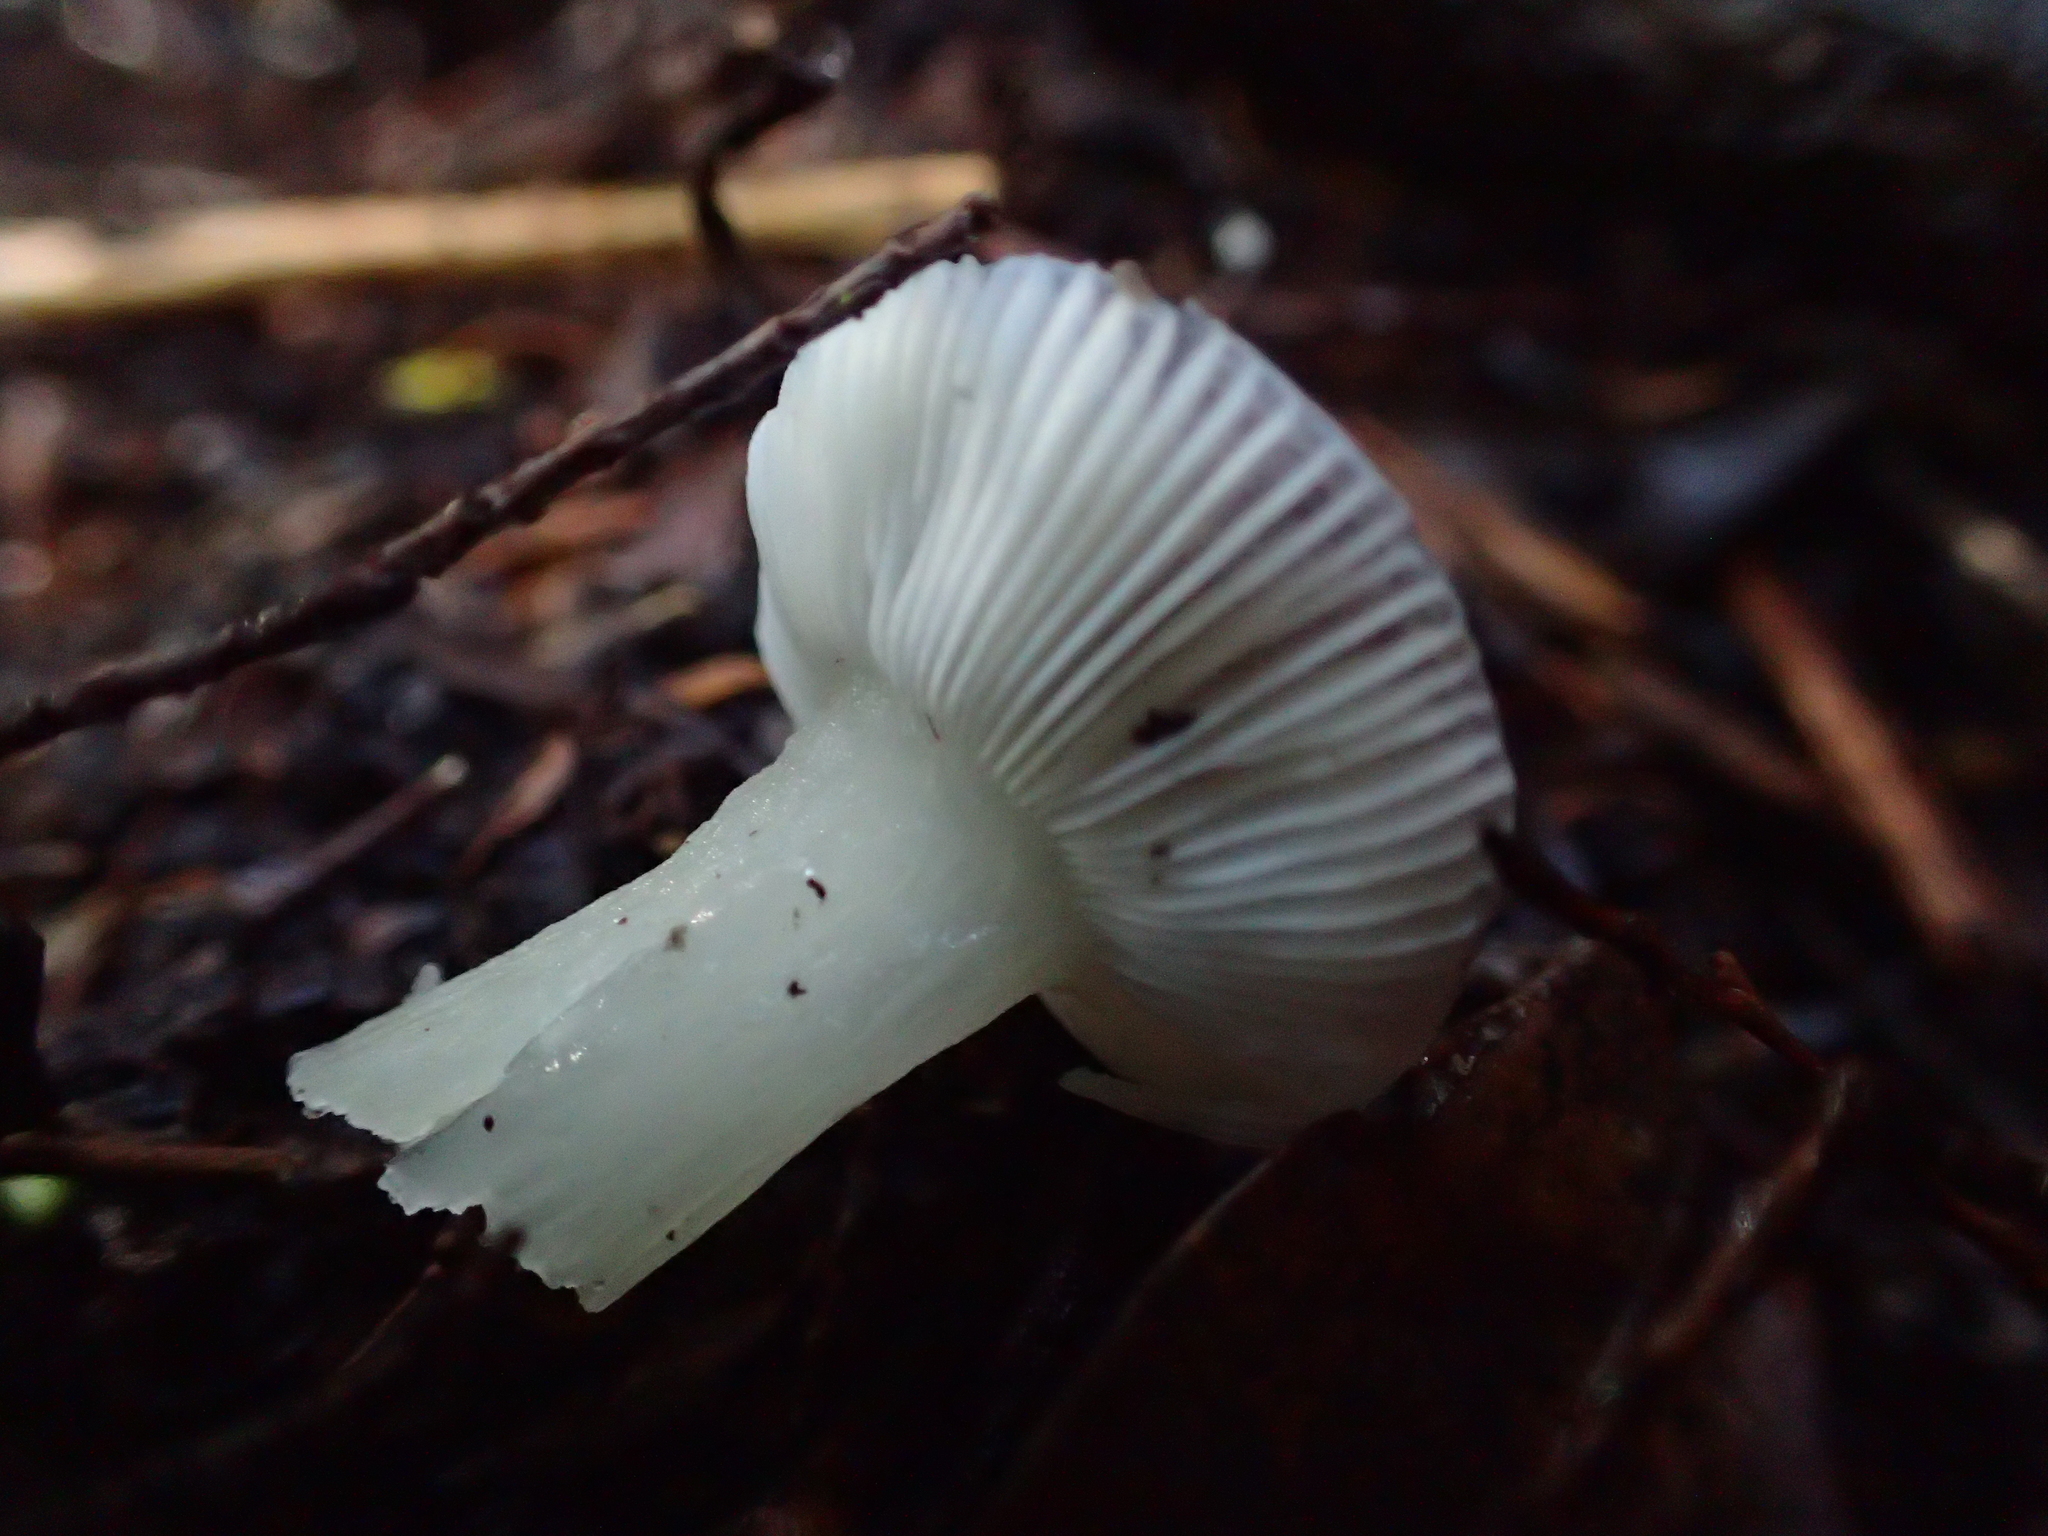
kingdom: Fungi
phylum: Basidiomycota
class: Agaricomycetes
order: Russulales
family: Russulaceae
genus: Russula
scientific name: Russula roseopileata
